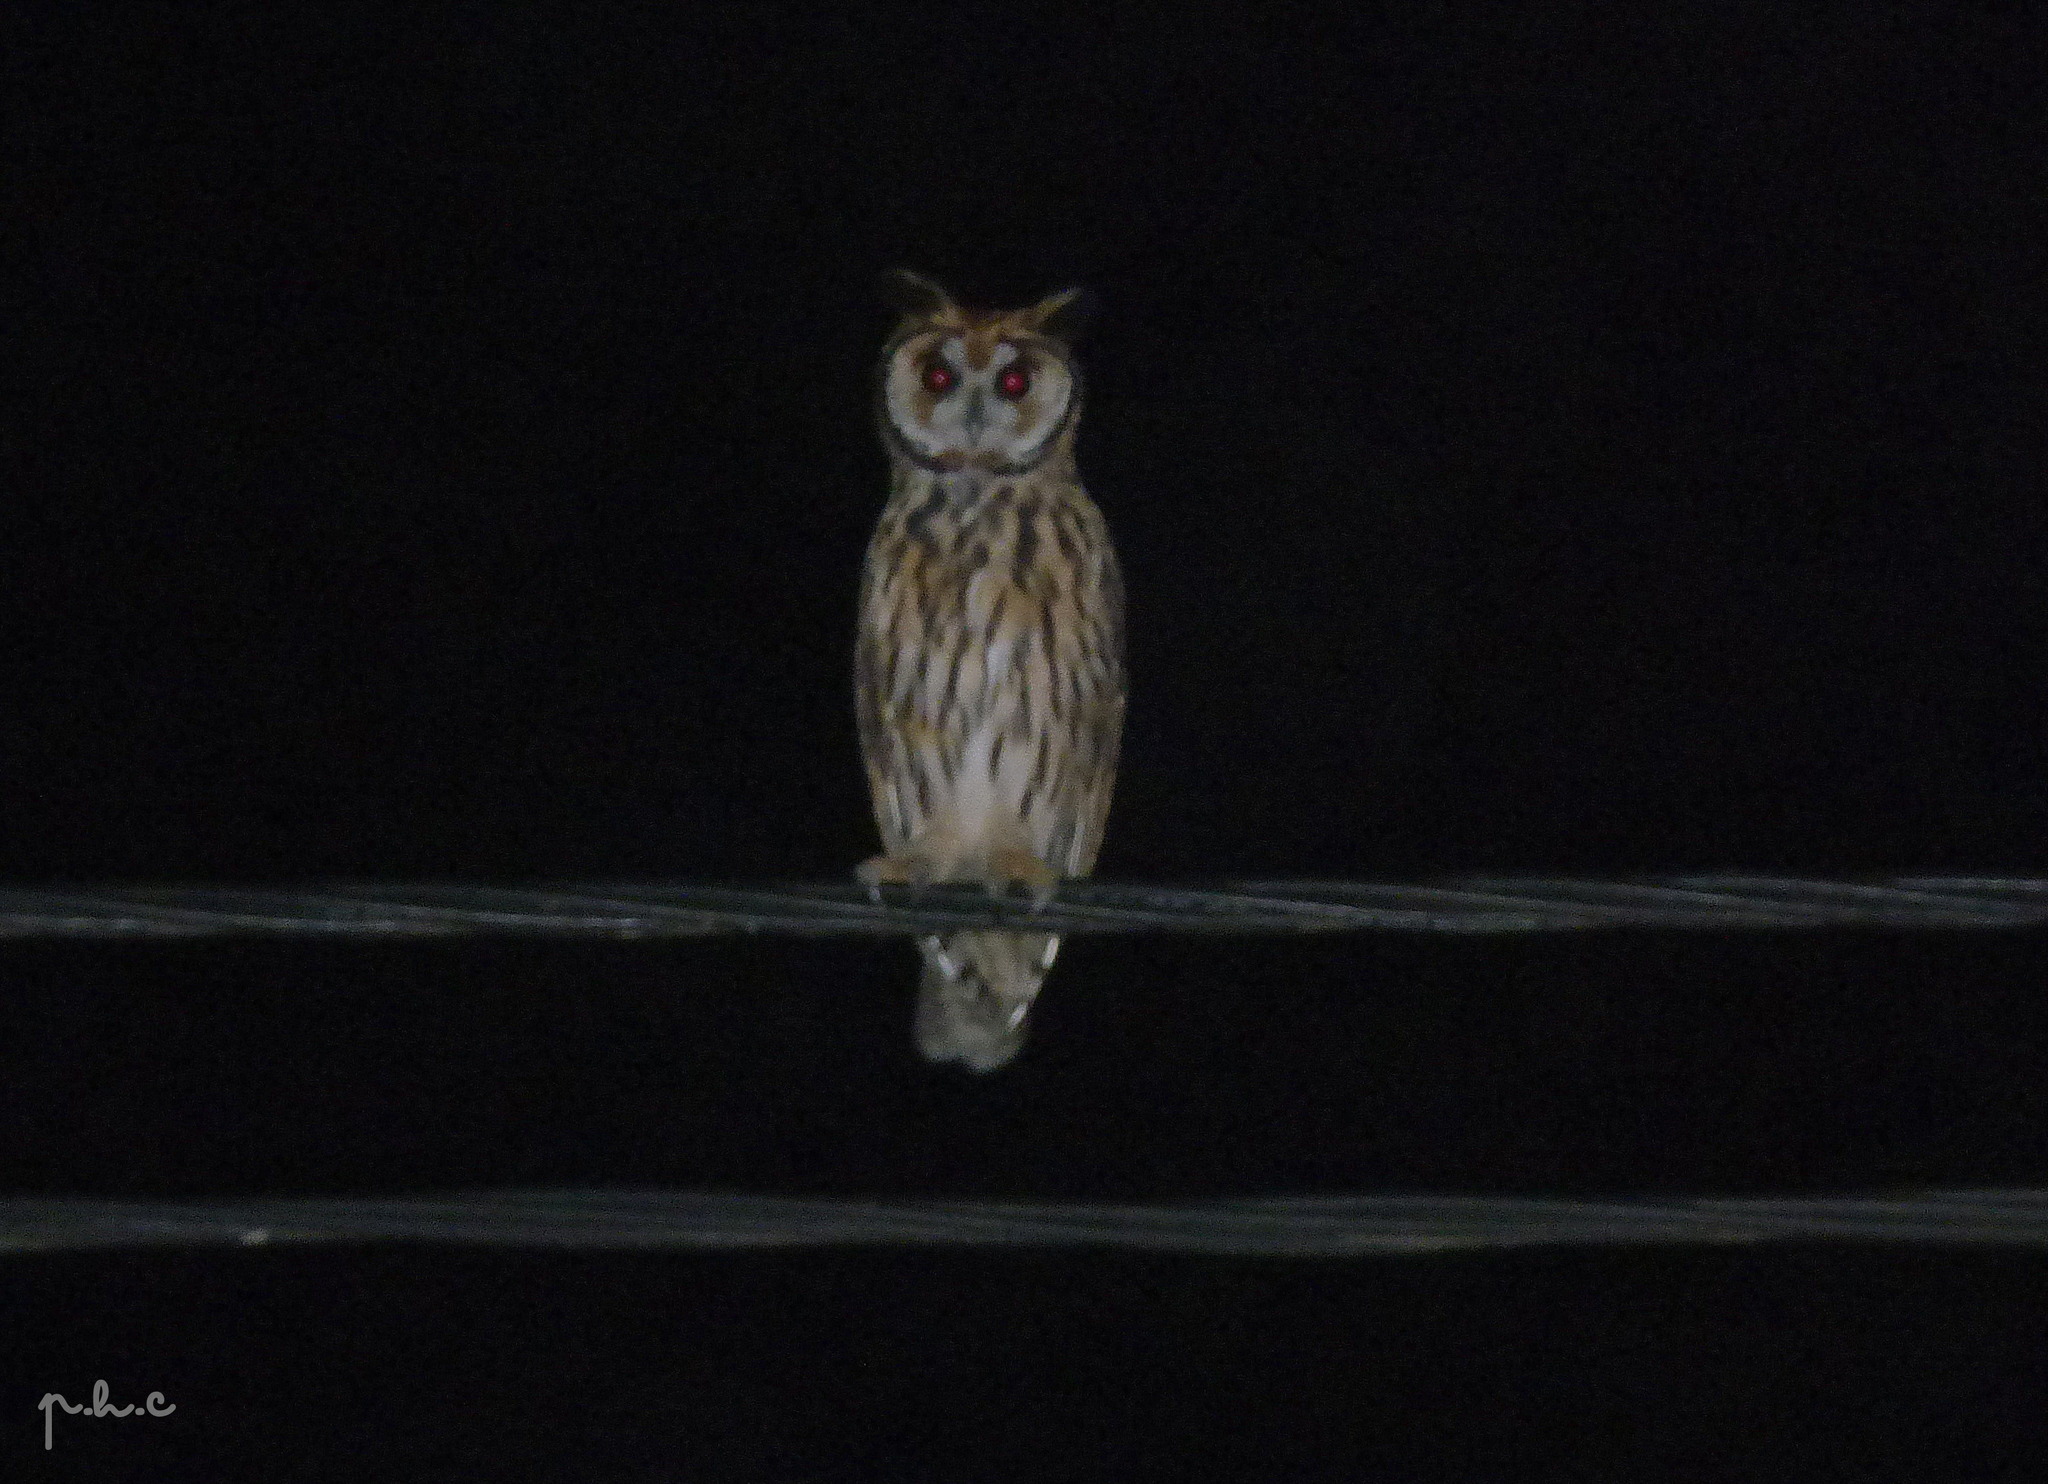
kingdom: Animalia
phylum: Chordata
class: Aves
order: Strigiformes
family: Strigidae
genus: Pseudoscops
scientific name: Pseudoscops clamator
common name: Striped owl
